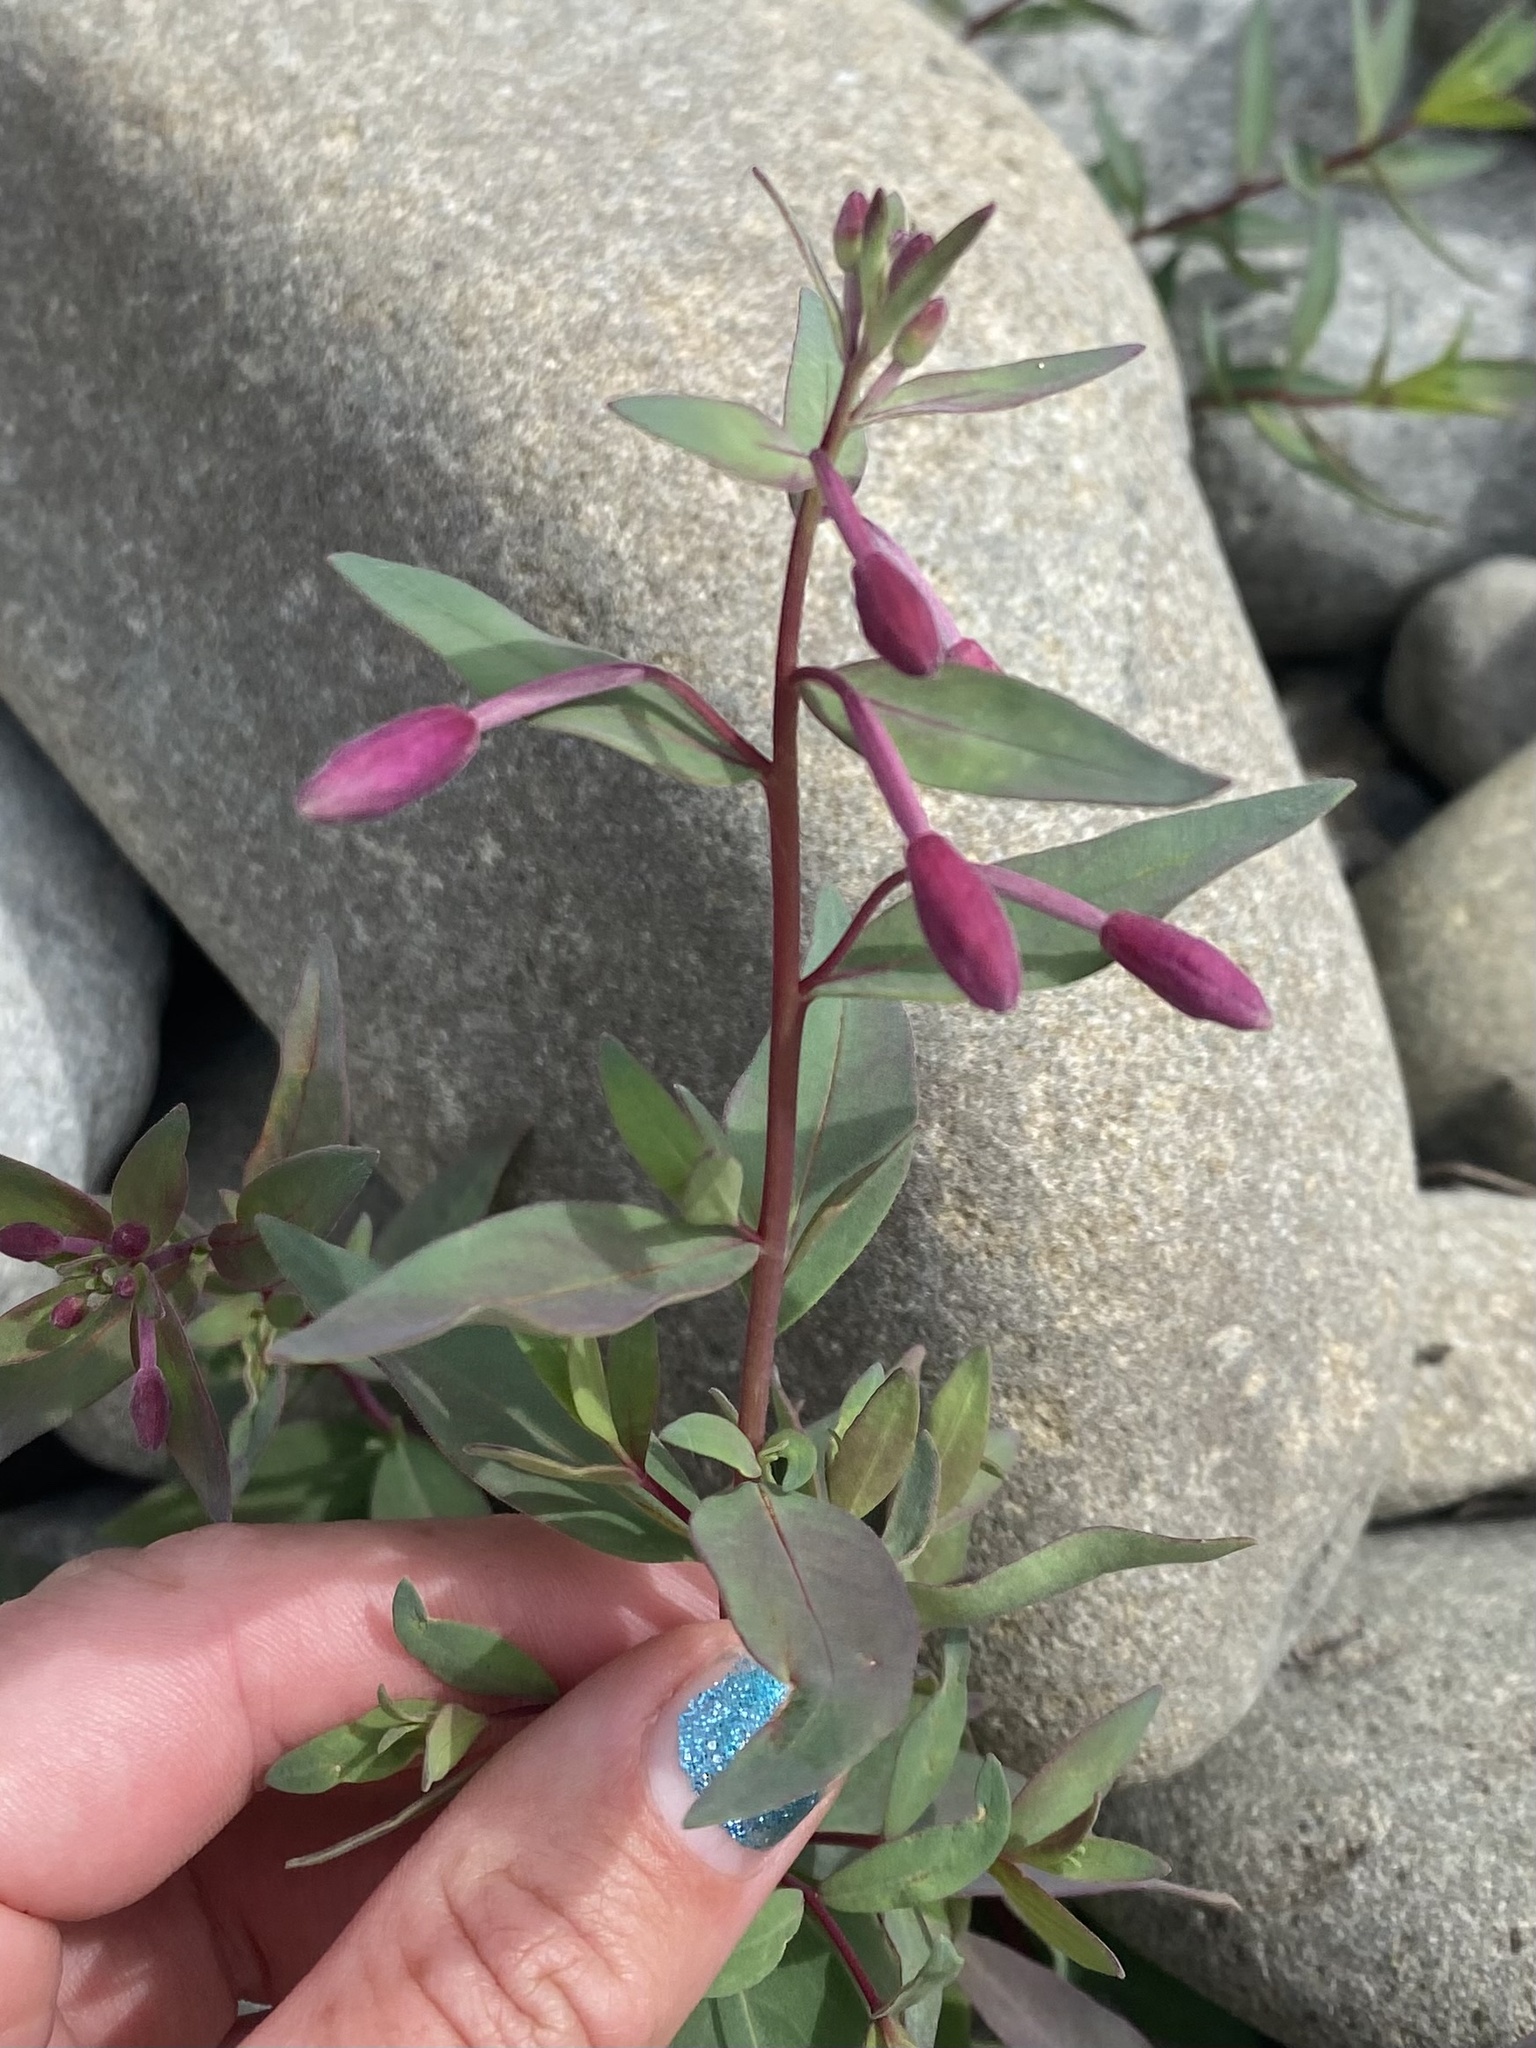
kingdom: Plantae
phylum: Tracheophyta
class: Magnoliopsida
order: Myrtales
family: Onagraceae
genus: Chamaenerion
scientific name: Chamaenerion latifolium
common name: Dwarf fireweed
